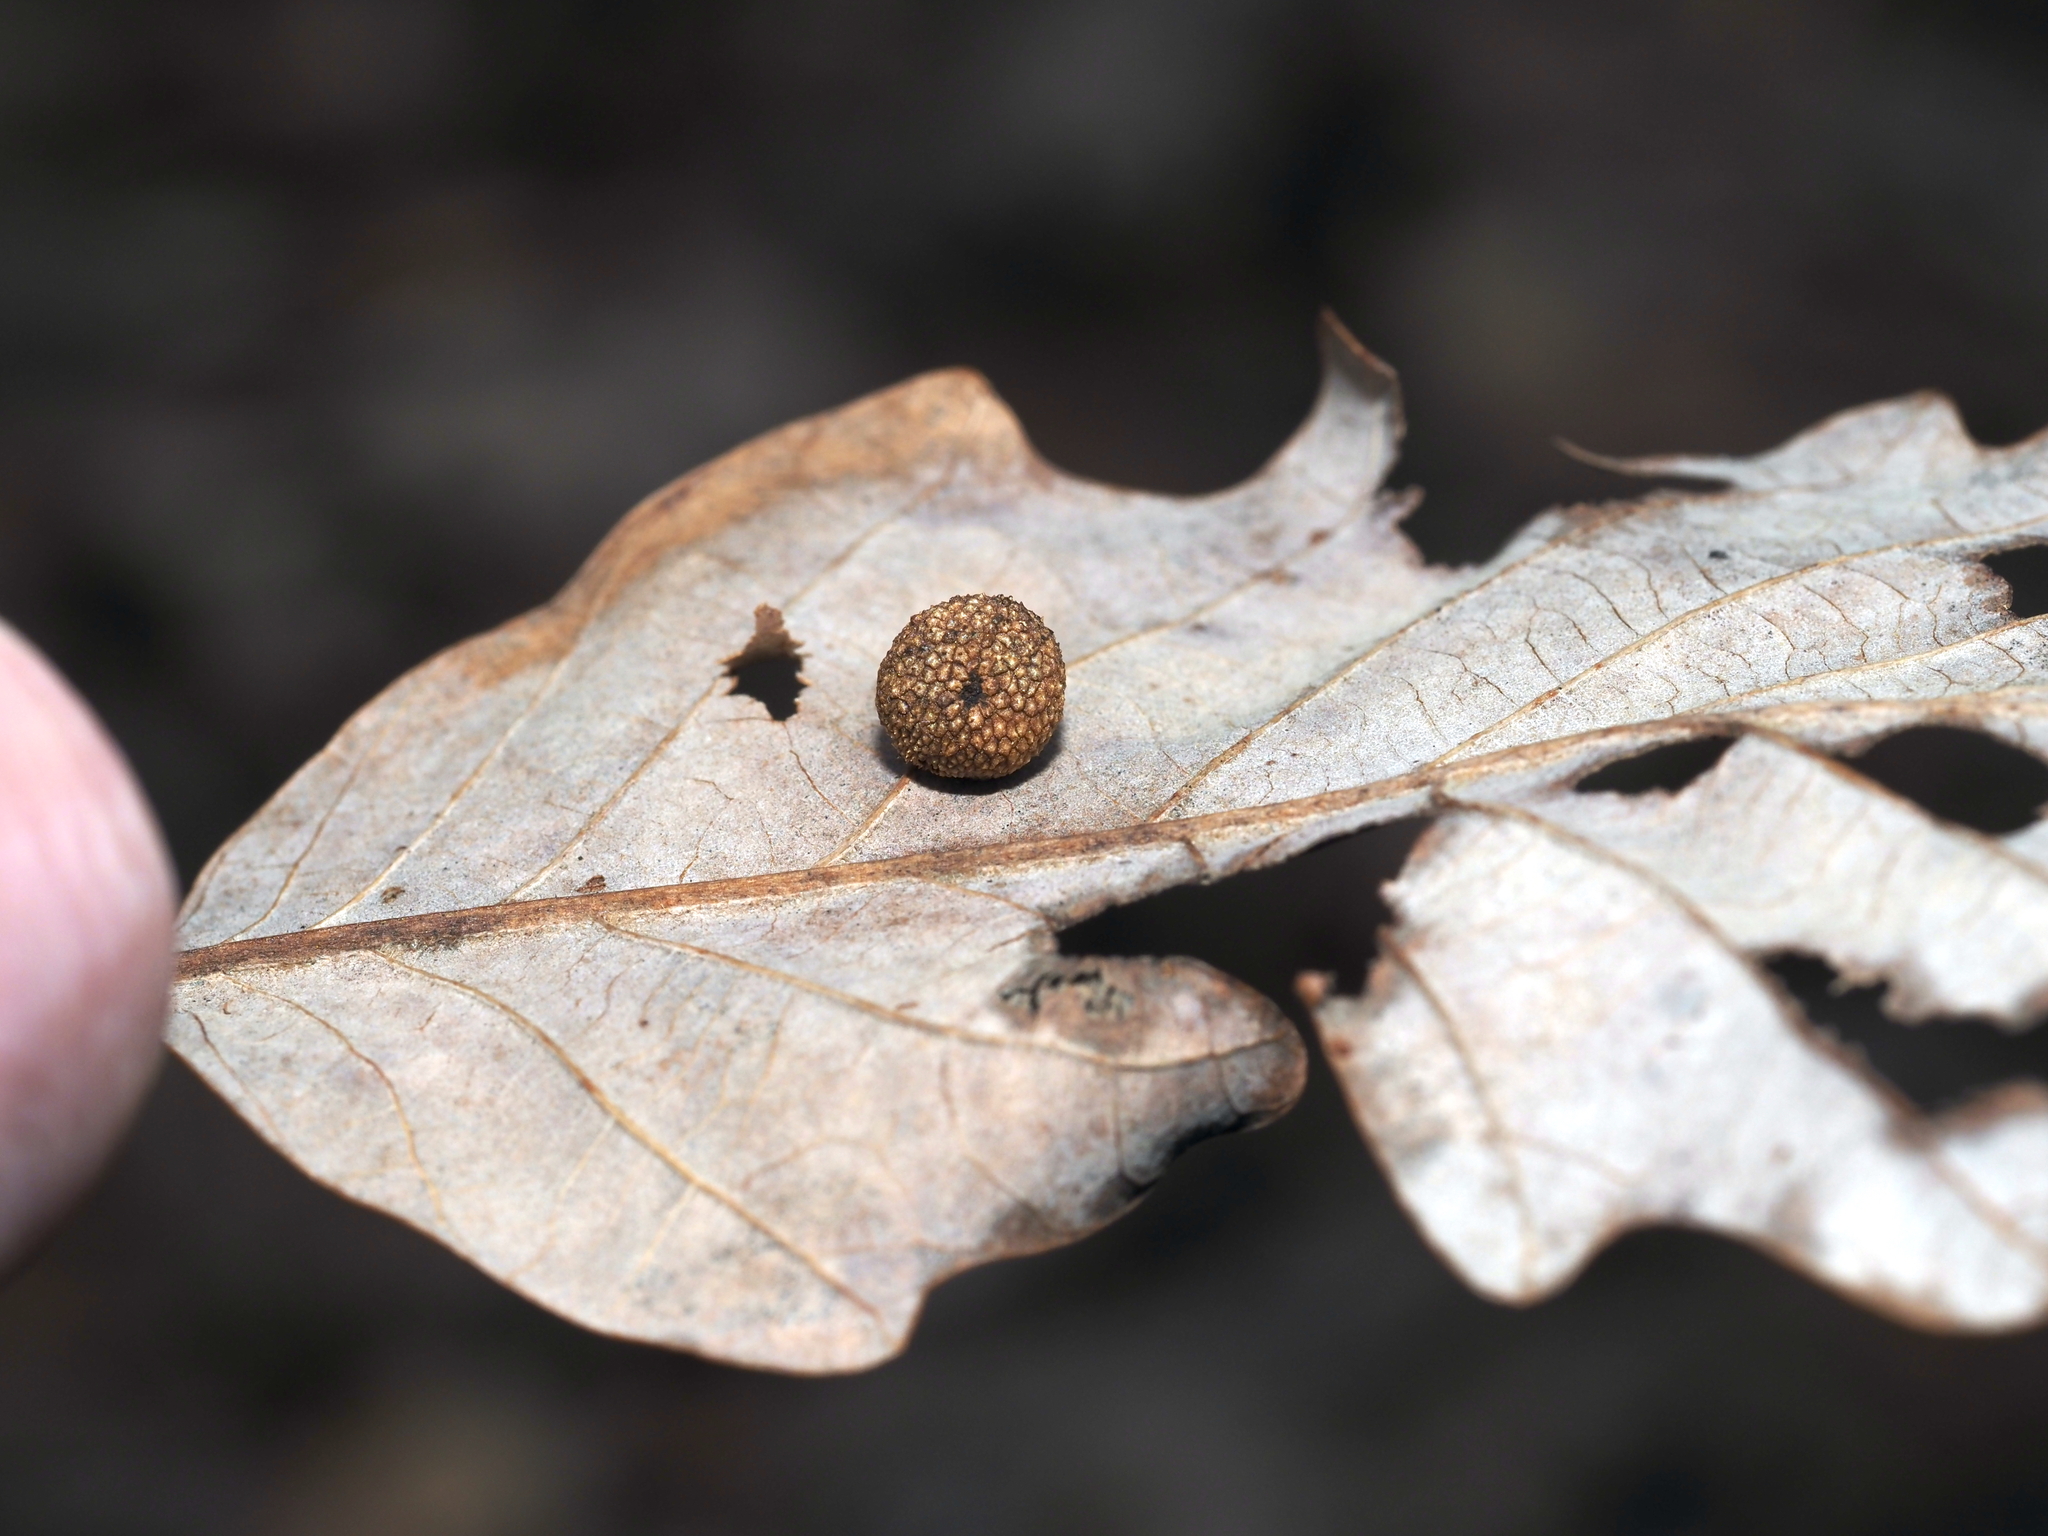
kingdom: Animalia
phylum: Arthropoda
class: Insecta
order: Hymenoptera
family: Cynipidae
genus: Acraspis
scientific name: Acraspis quercushirta
